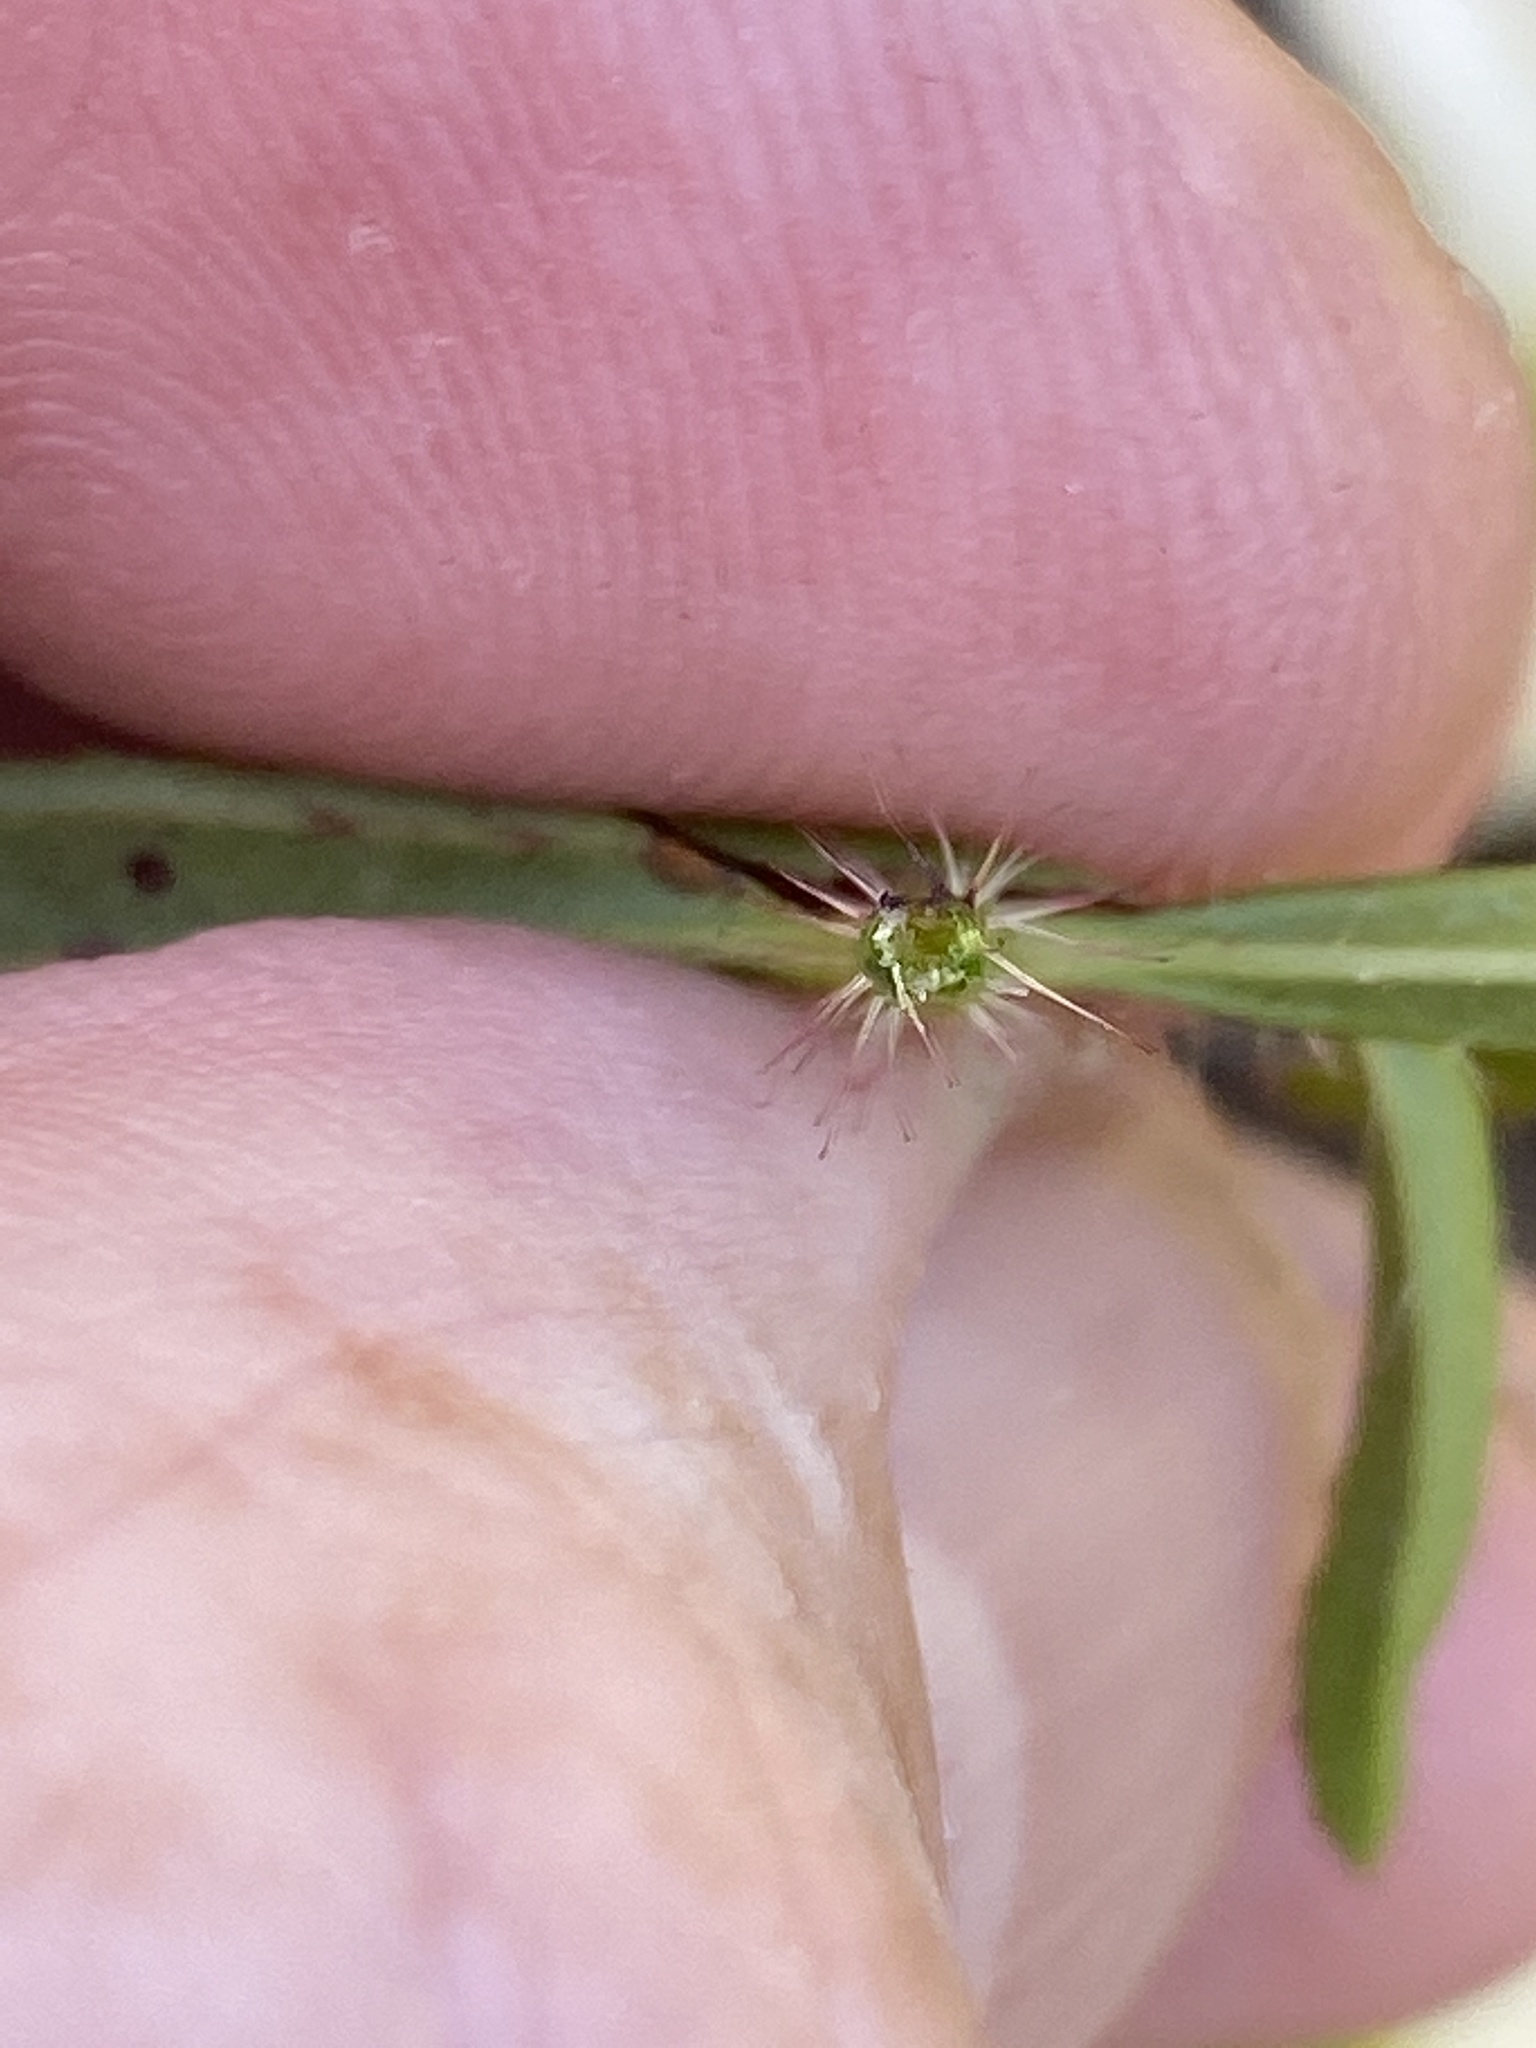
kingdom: Plantae
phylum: Tracheophyta
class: Magnoliopsida
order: Myrtales
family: Melastomataceae
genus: Rhexia
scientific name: Rhexia mariana
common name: Dull meadow-pitcher
